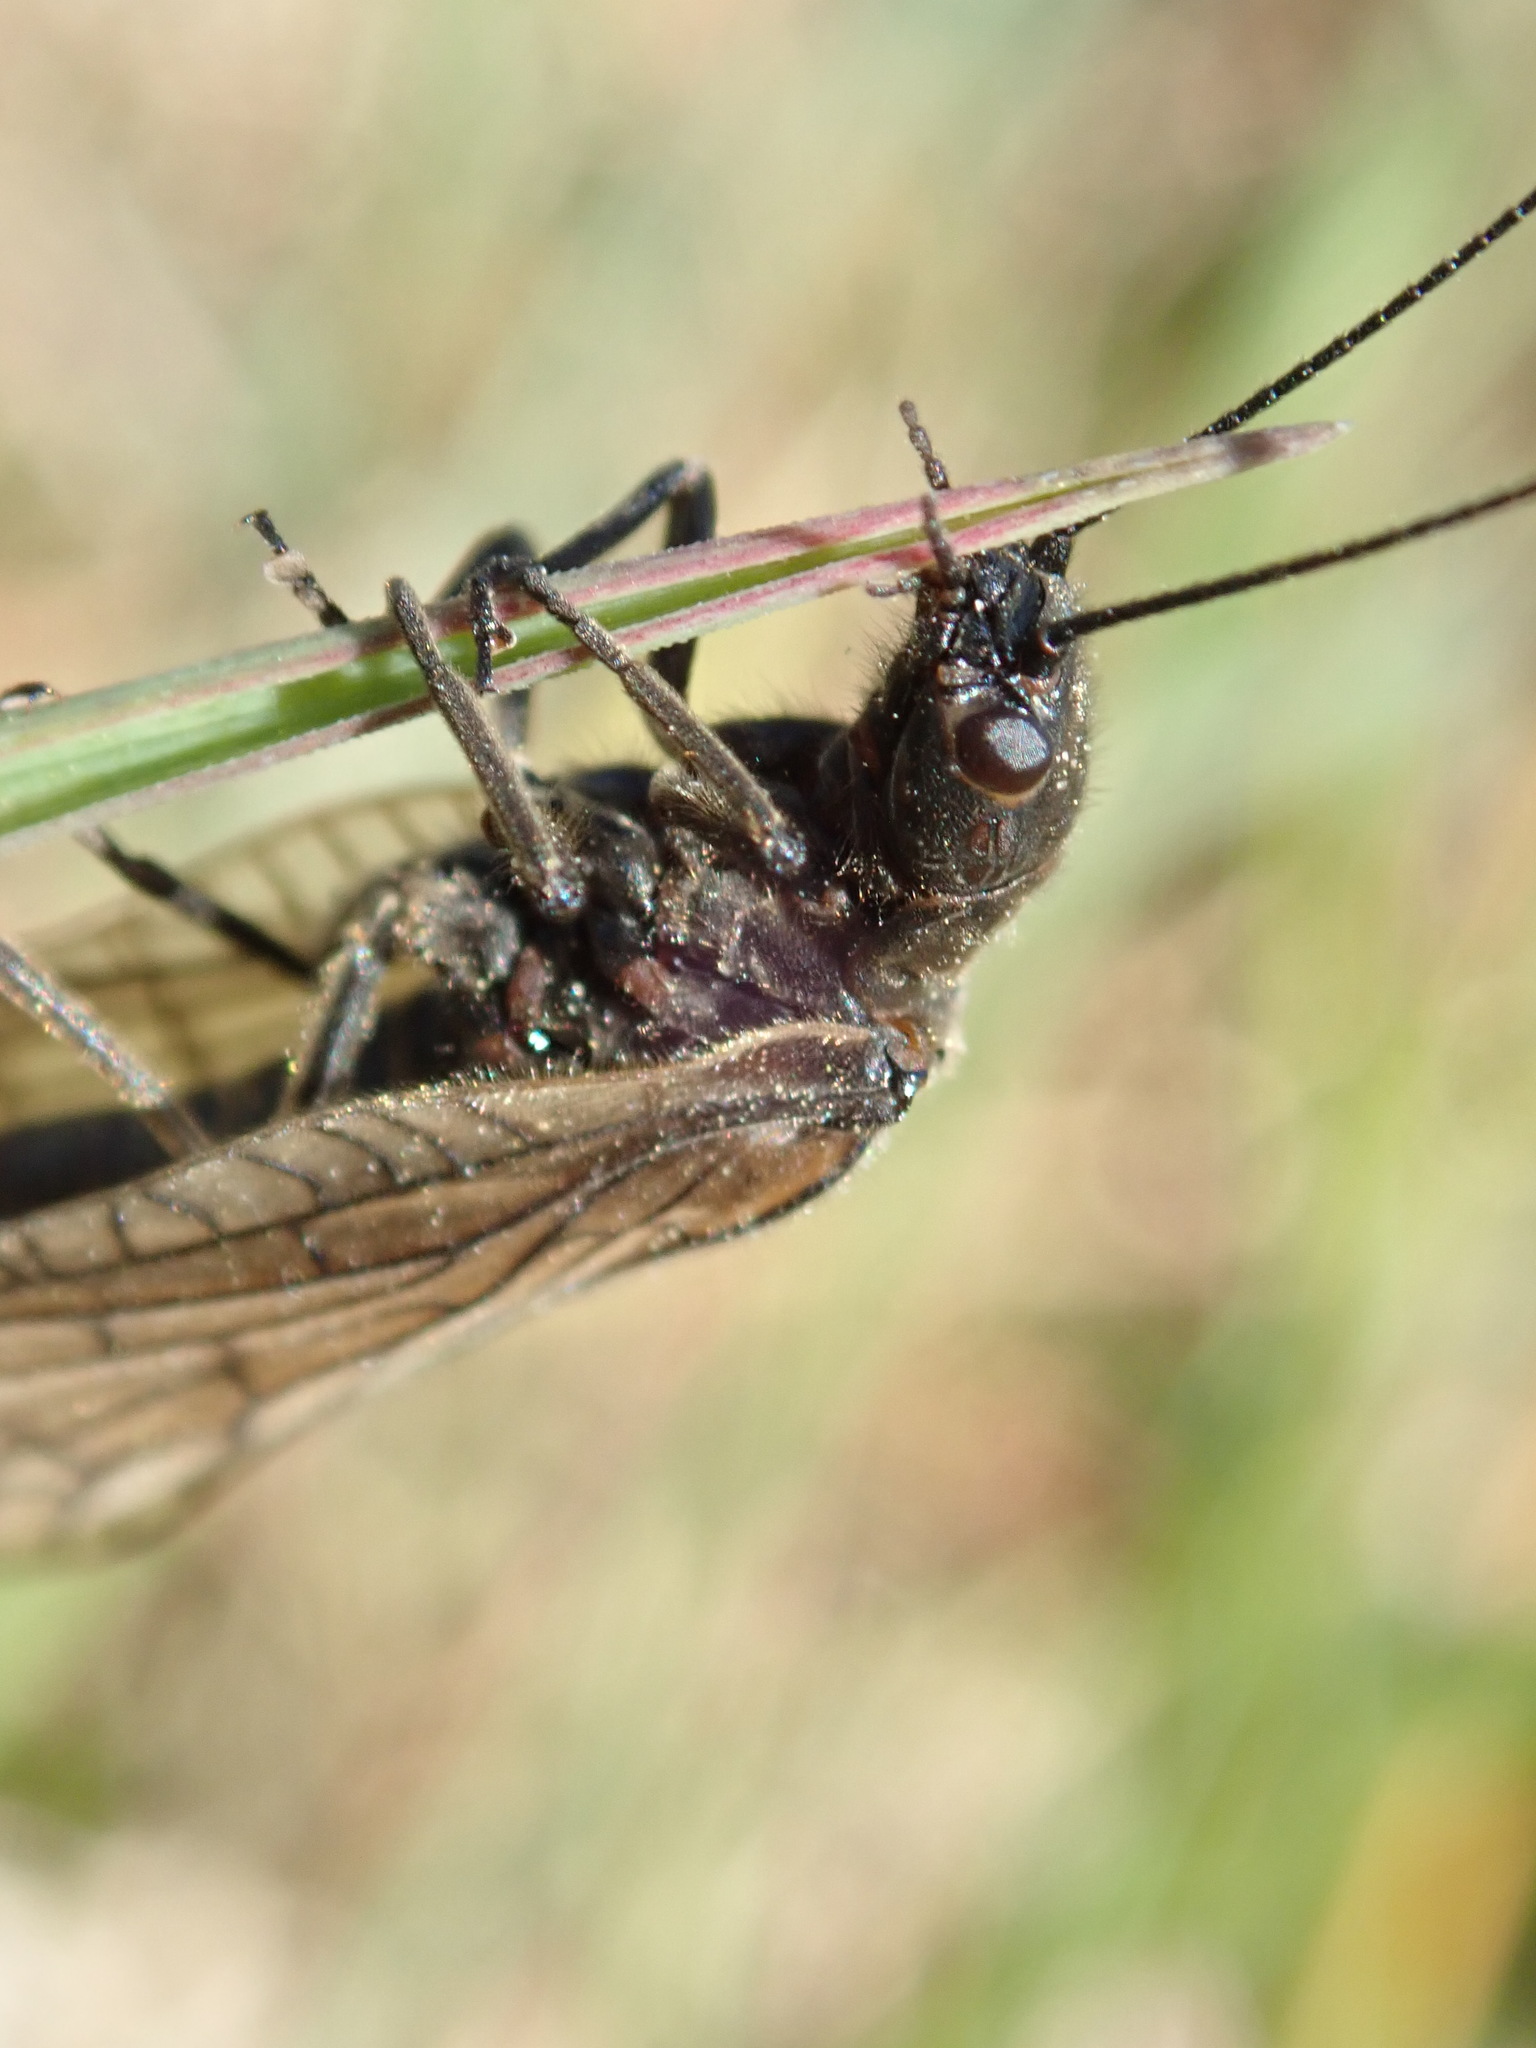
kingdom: Animalia
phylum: Arthropoda
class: Insecta
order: Megaloptera
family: Sialidae
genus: Sialis
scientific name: Sialis
